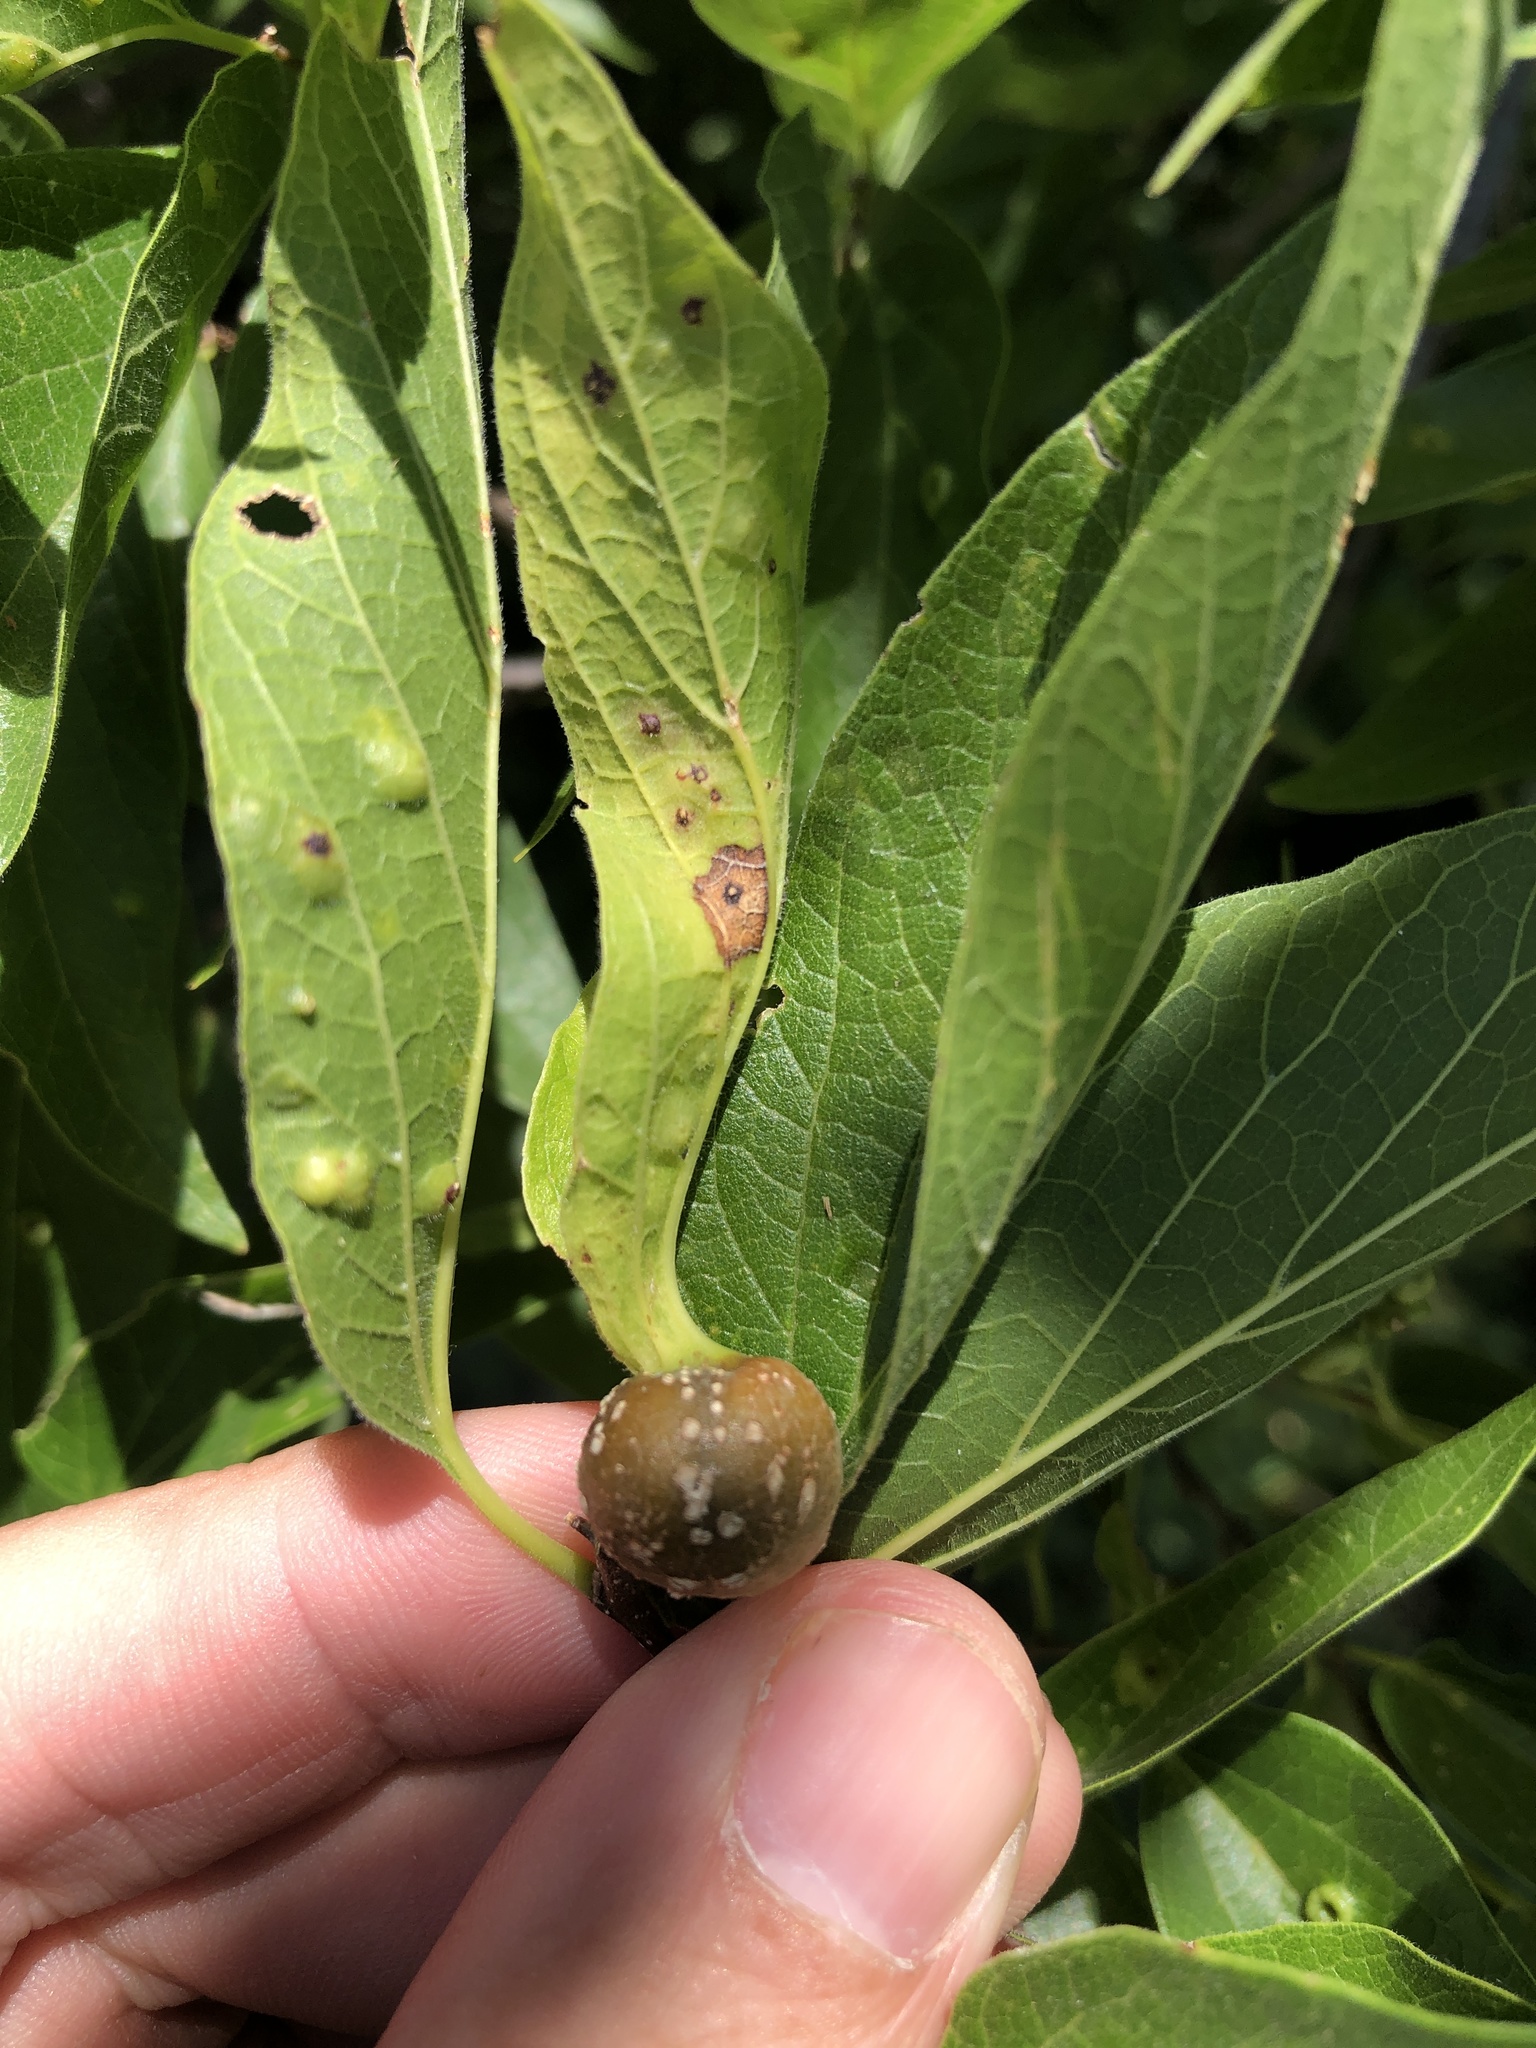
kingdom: Animalia
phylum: Arthropoda
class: Insecta
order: Hemiptera
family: Aphalaridae
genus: Pachypsylla
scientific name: Pachypsylla venusta
